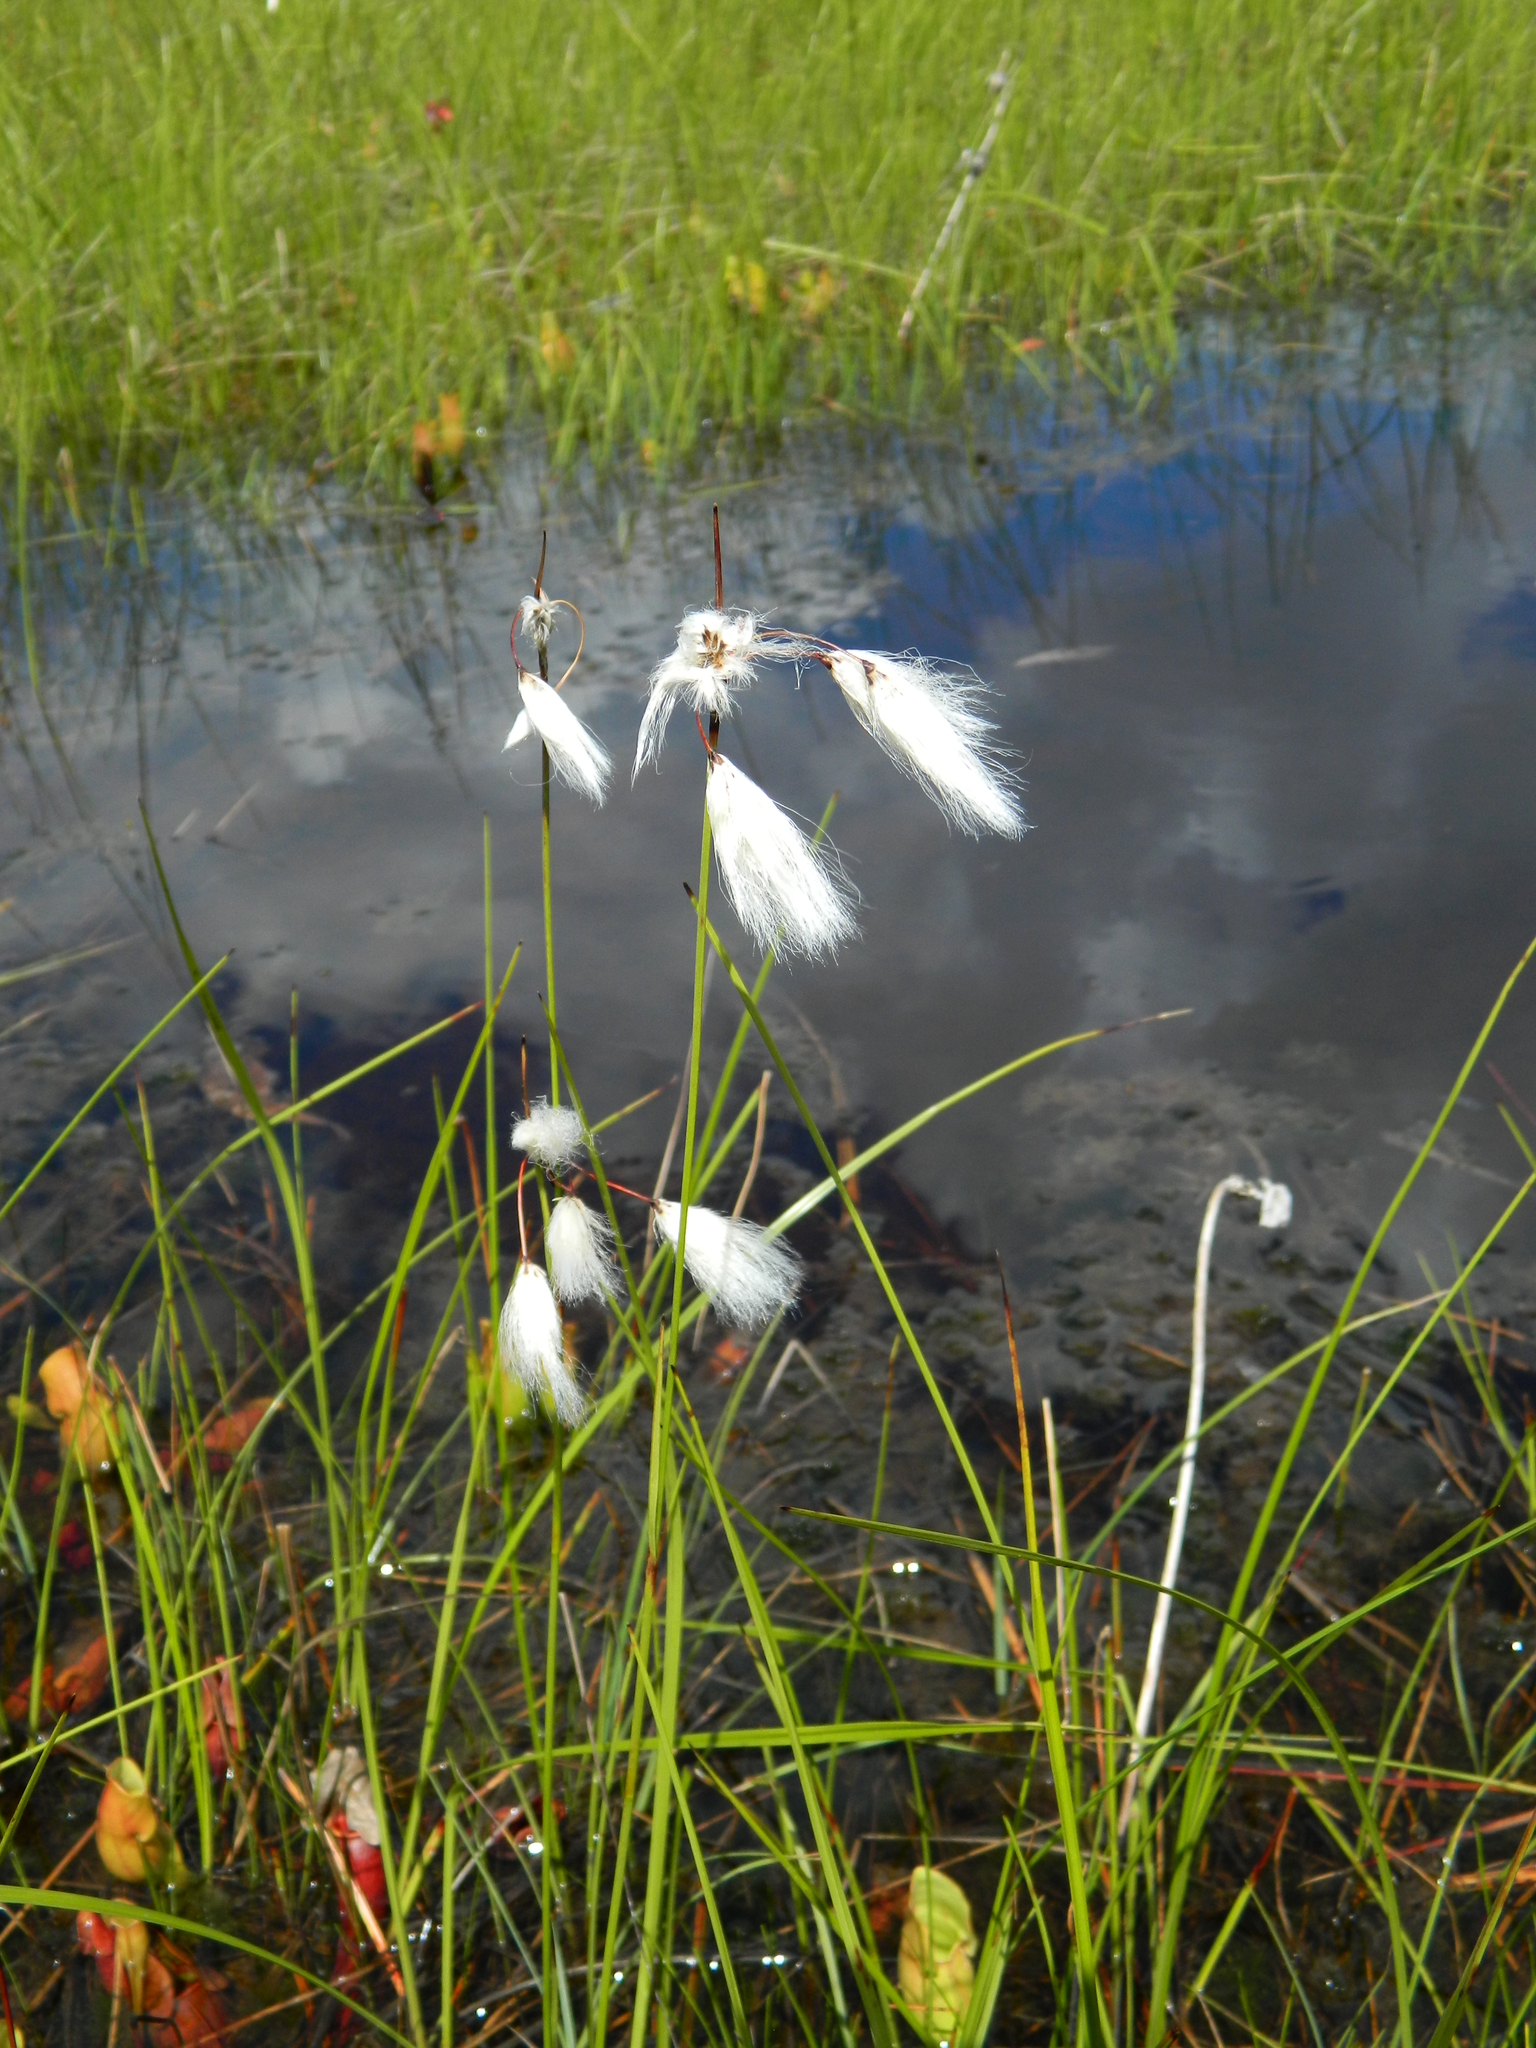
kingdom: Plantae
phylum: Tracheophyta
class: Liliopsida
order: Poales
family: Cyperaceae
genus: Eriophorum
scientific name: Eriophorum angustifolium
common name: Common cottongrass
